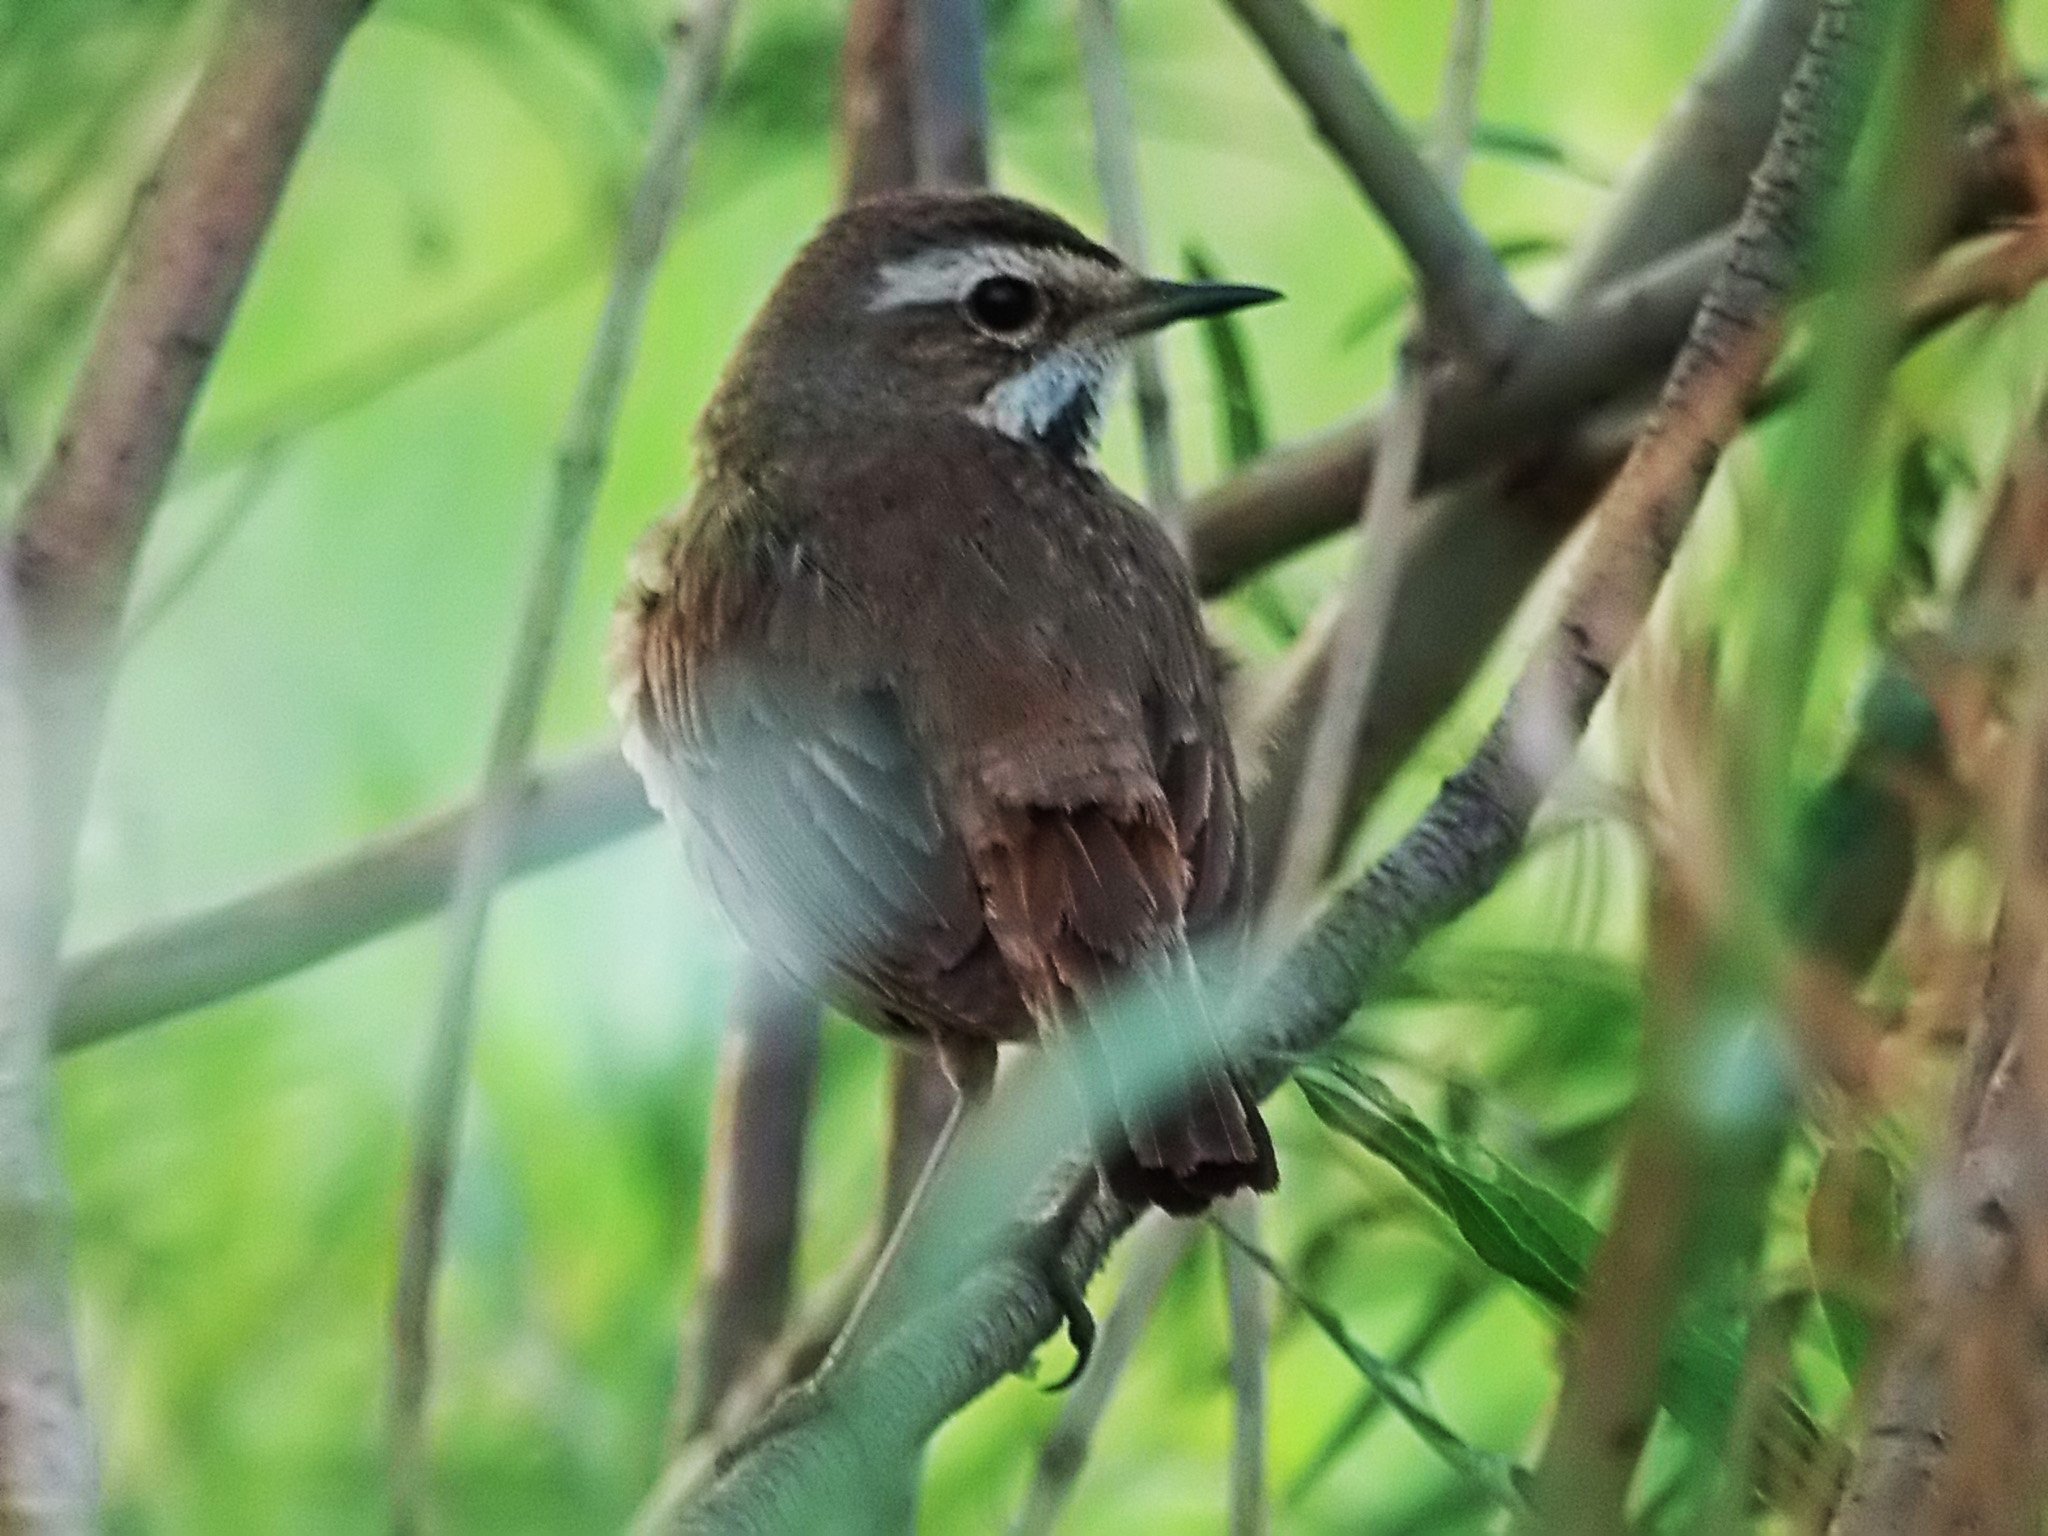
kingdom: Animalia
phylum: Chordata
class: Aves
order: Passeriformes
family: Muscicapidae
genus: Luscinia
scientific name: Luscinia svecica
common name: Bluethroat
